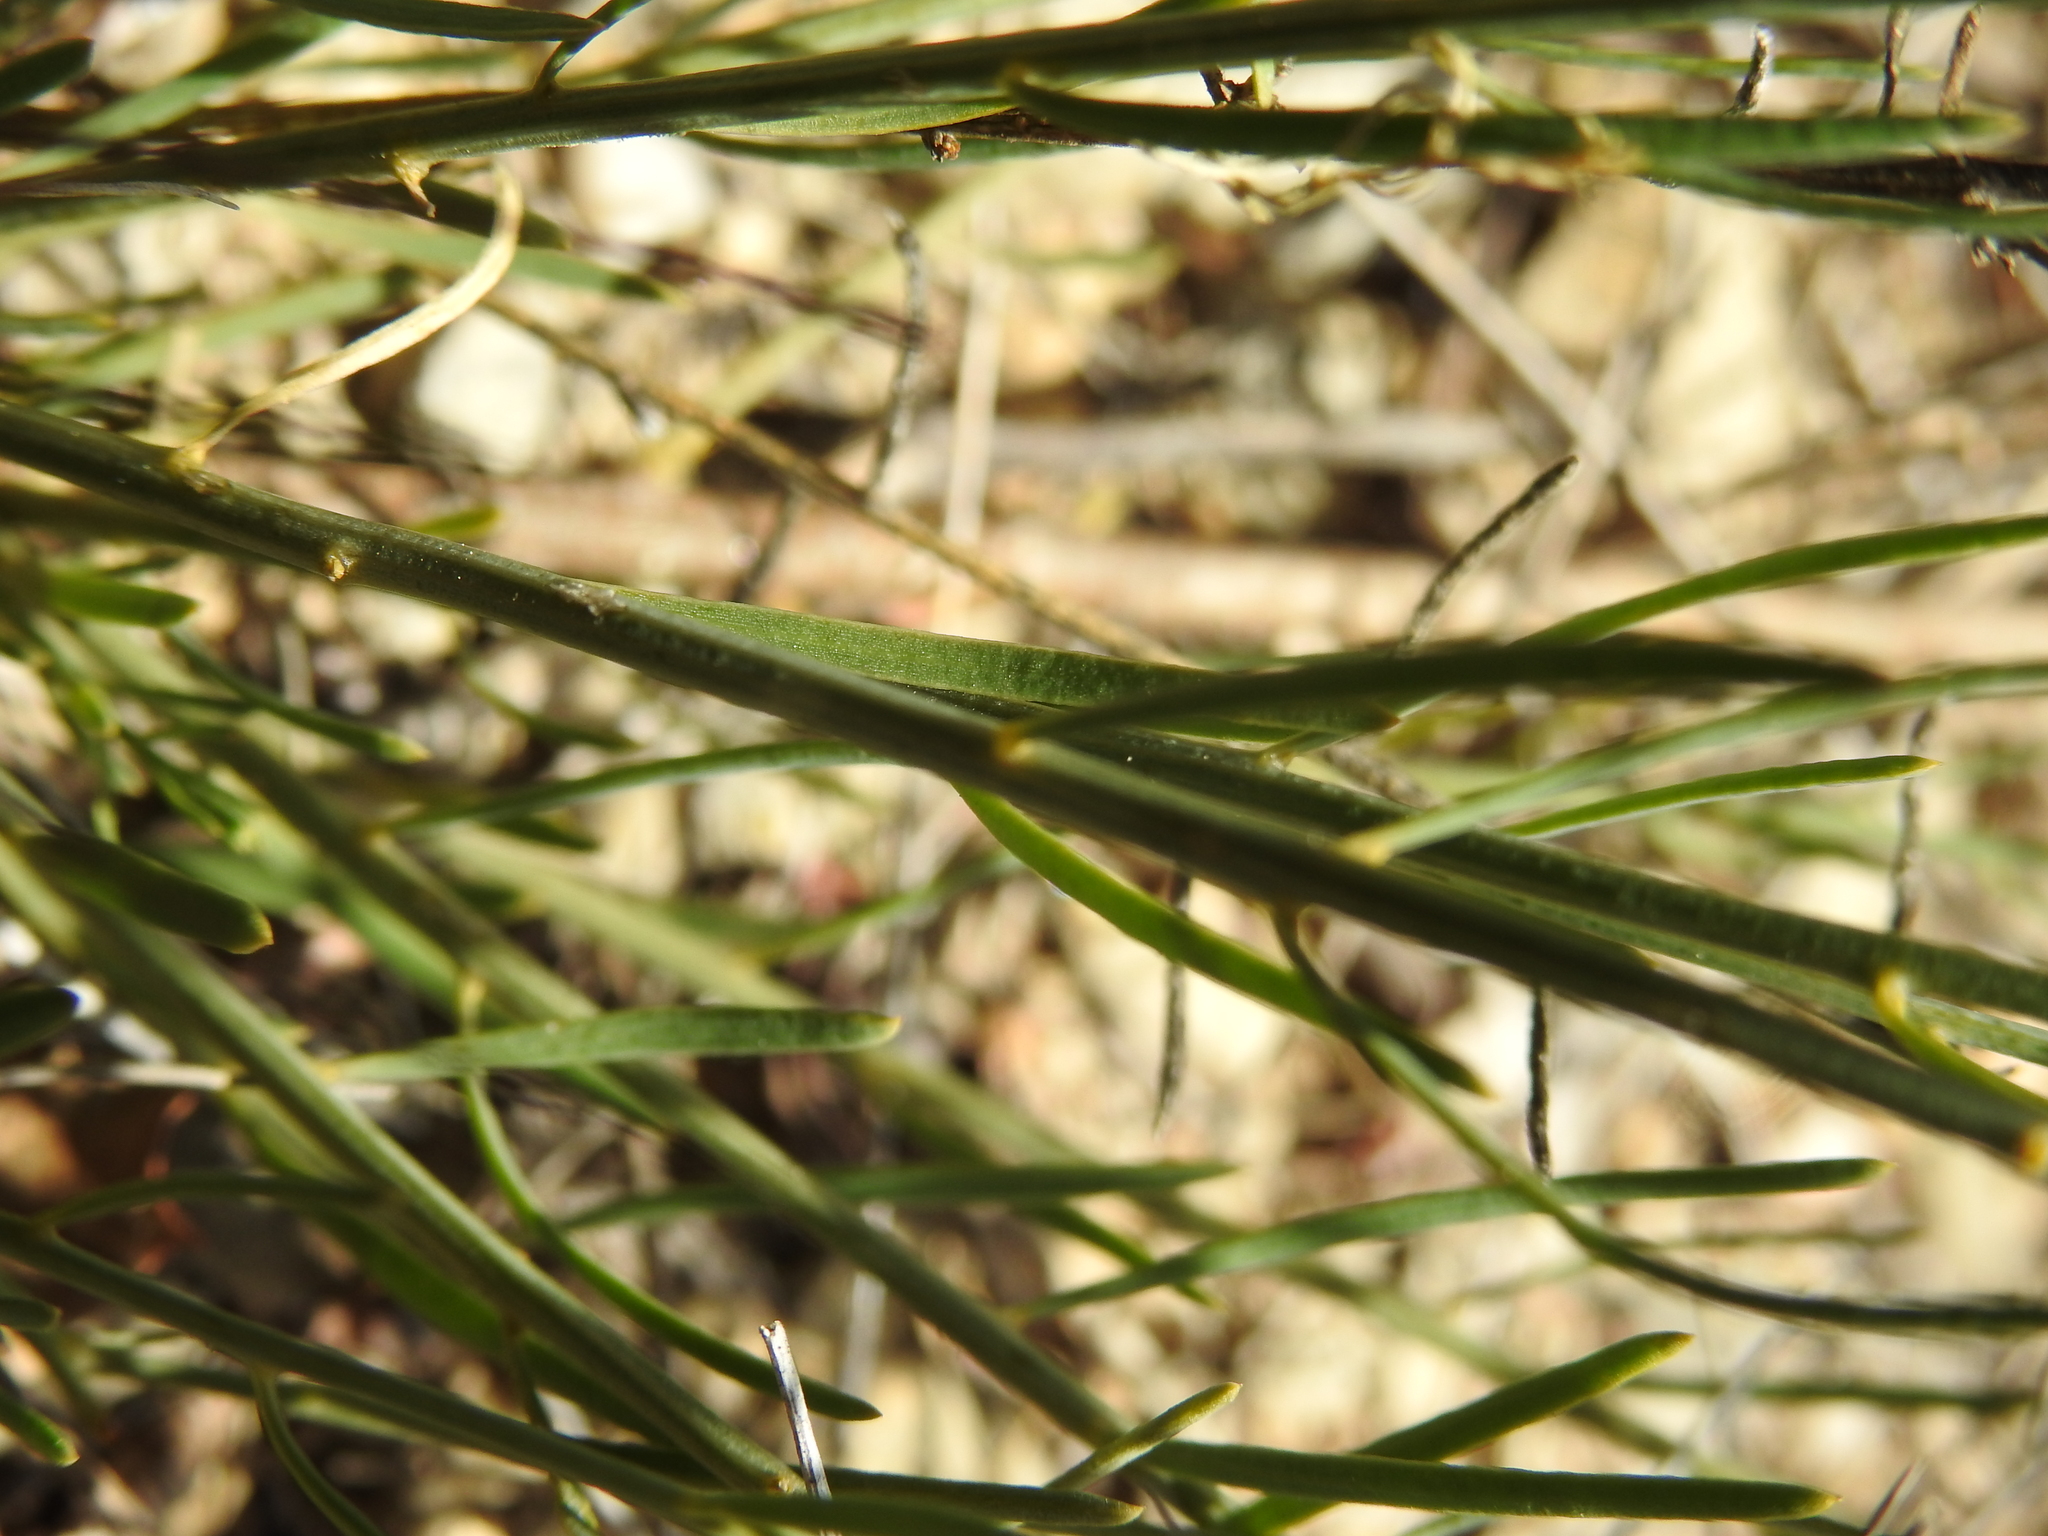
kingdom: Plantae
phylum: Tracheophyta
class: Magnoliopsida
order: Santalales
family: Thesiaceae
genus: Thesium
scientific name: Thesium divaricatum
